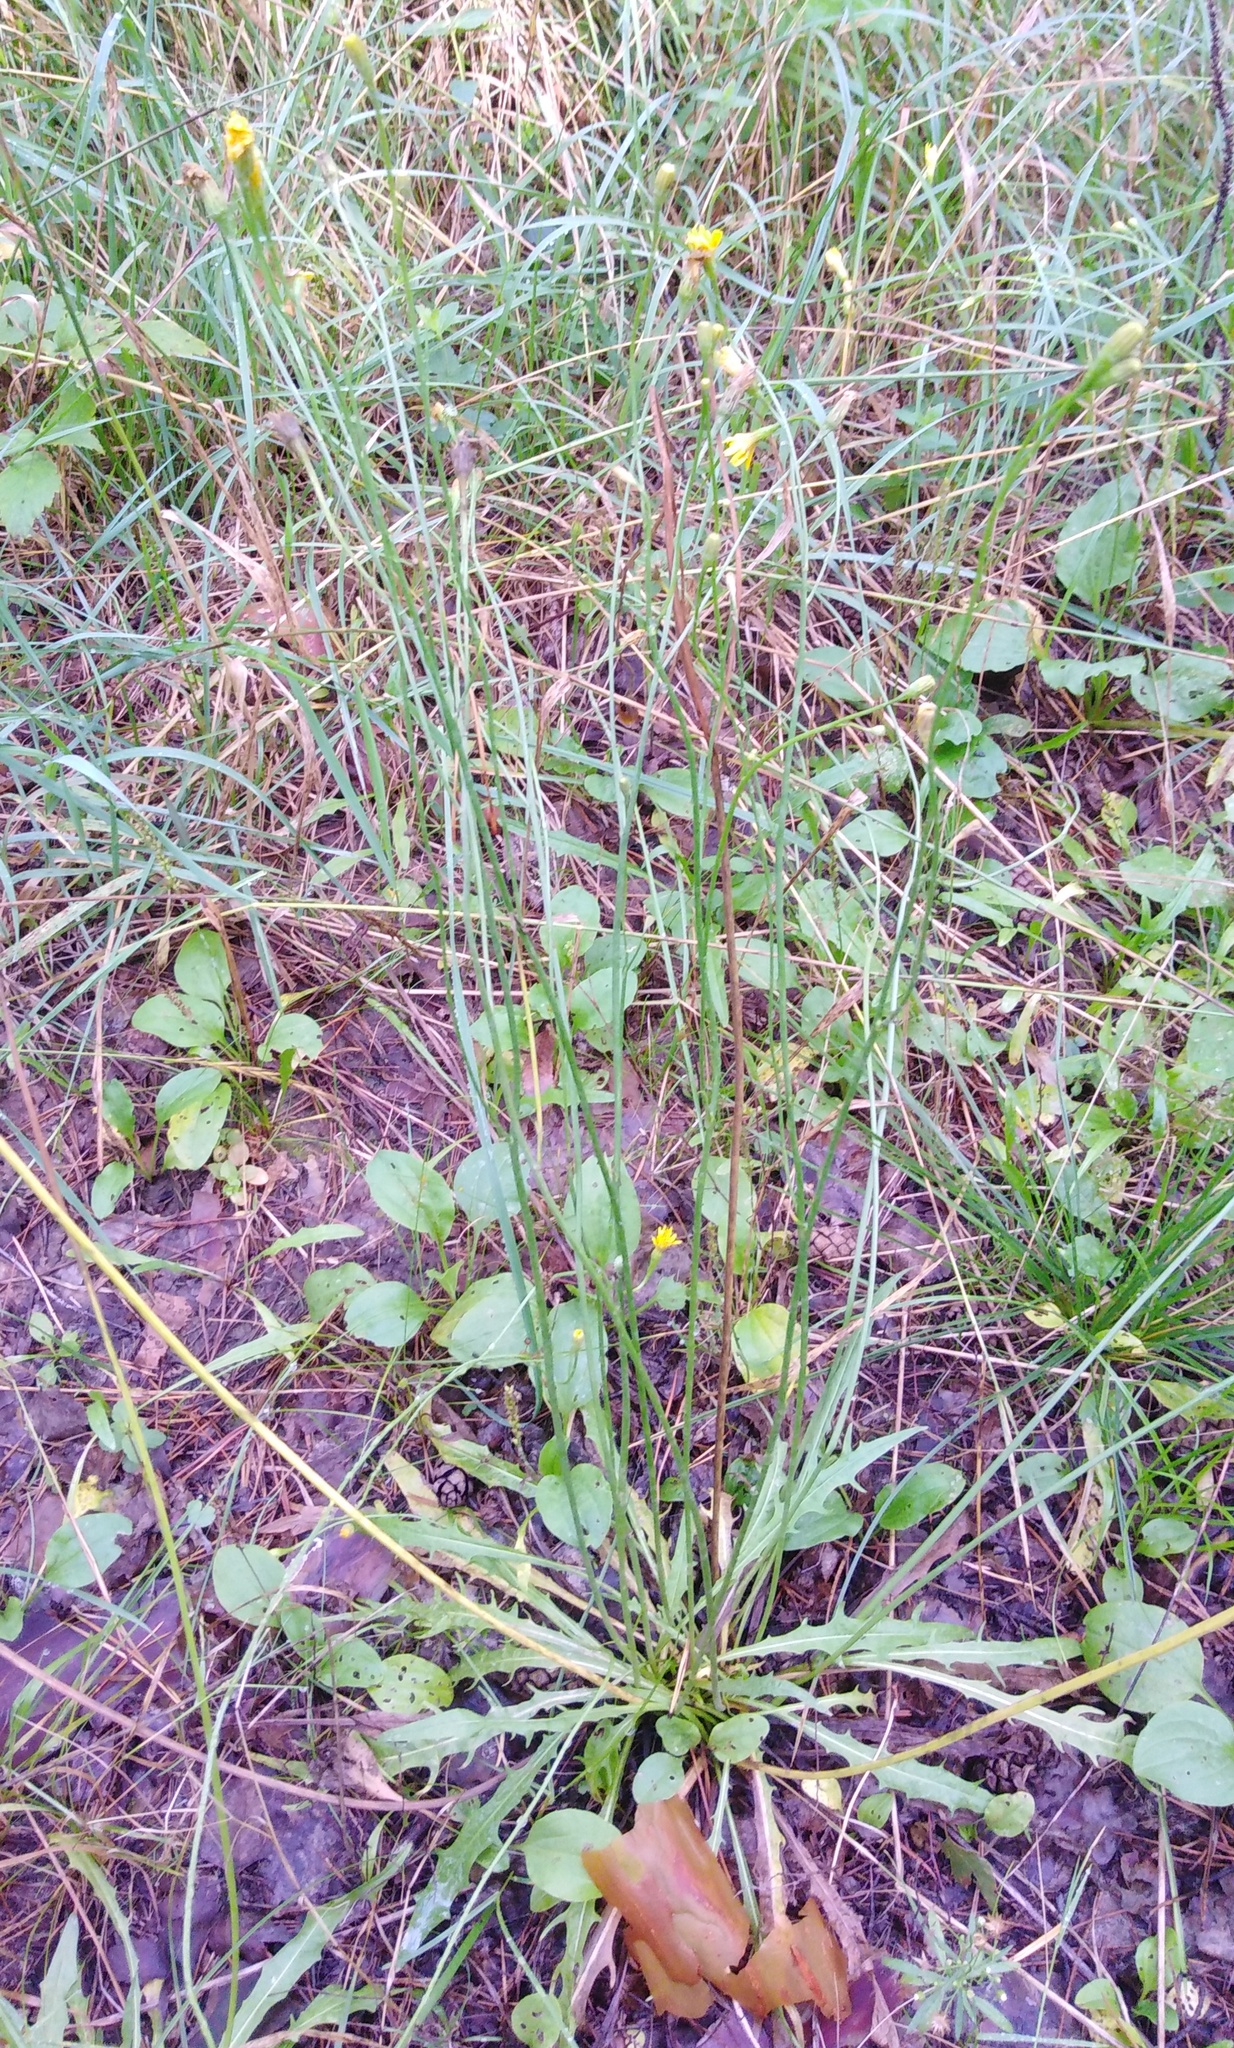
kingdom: Plantae
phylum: Tracheophyta
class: Magnoliopsida
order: Asterales
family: Asteraceae
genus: Scorzoneroides
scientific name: Scorzoneroides autumnalis
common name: Autumn hawkbit
